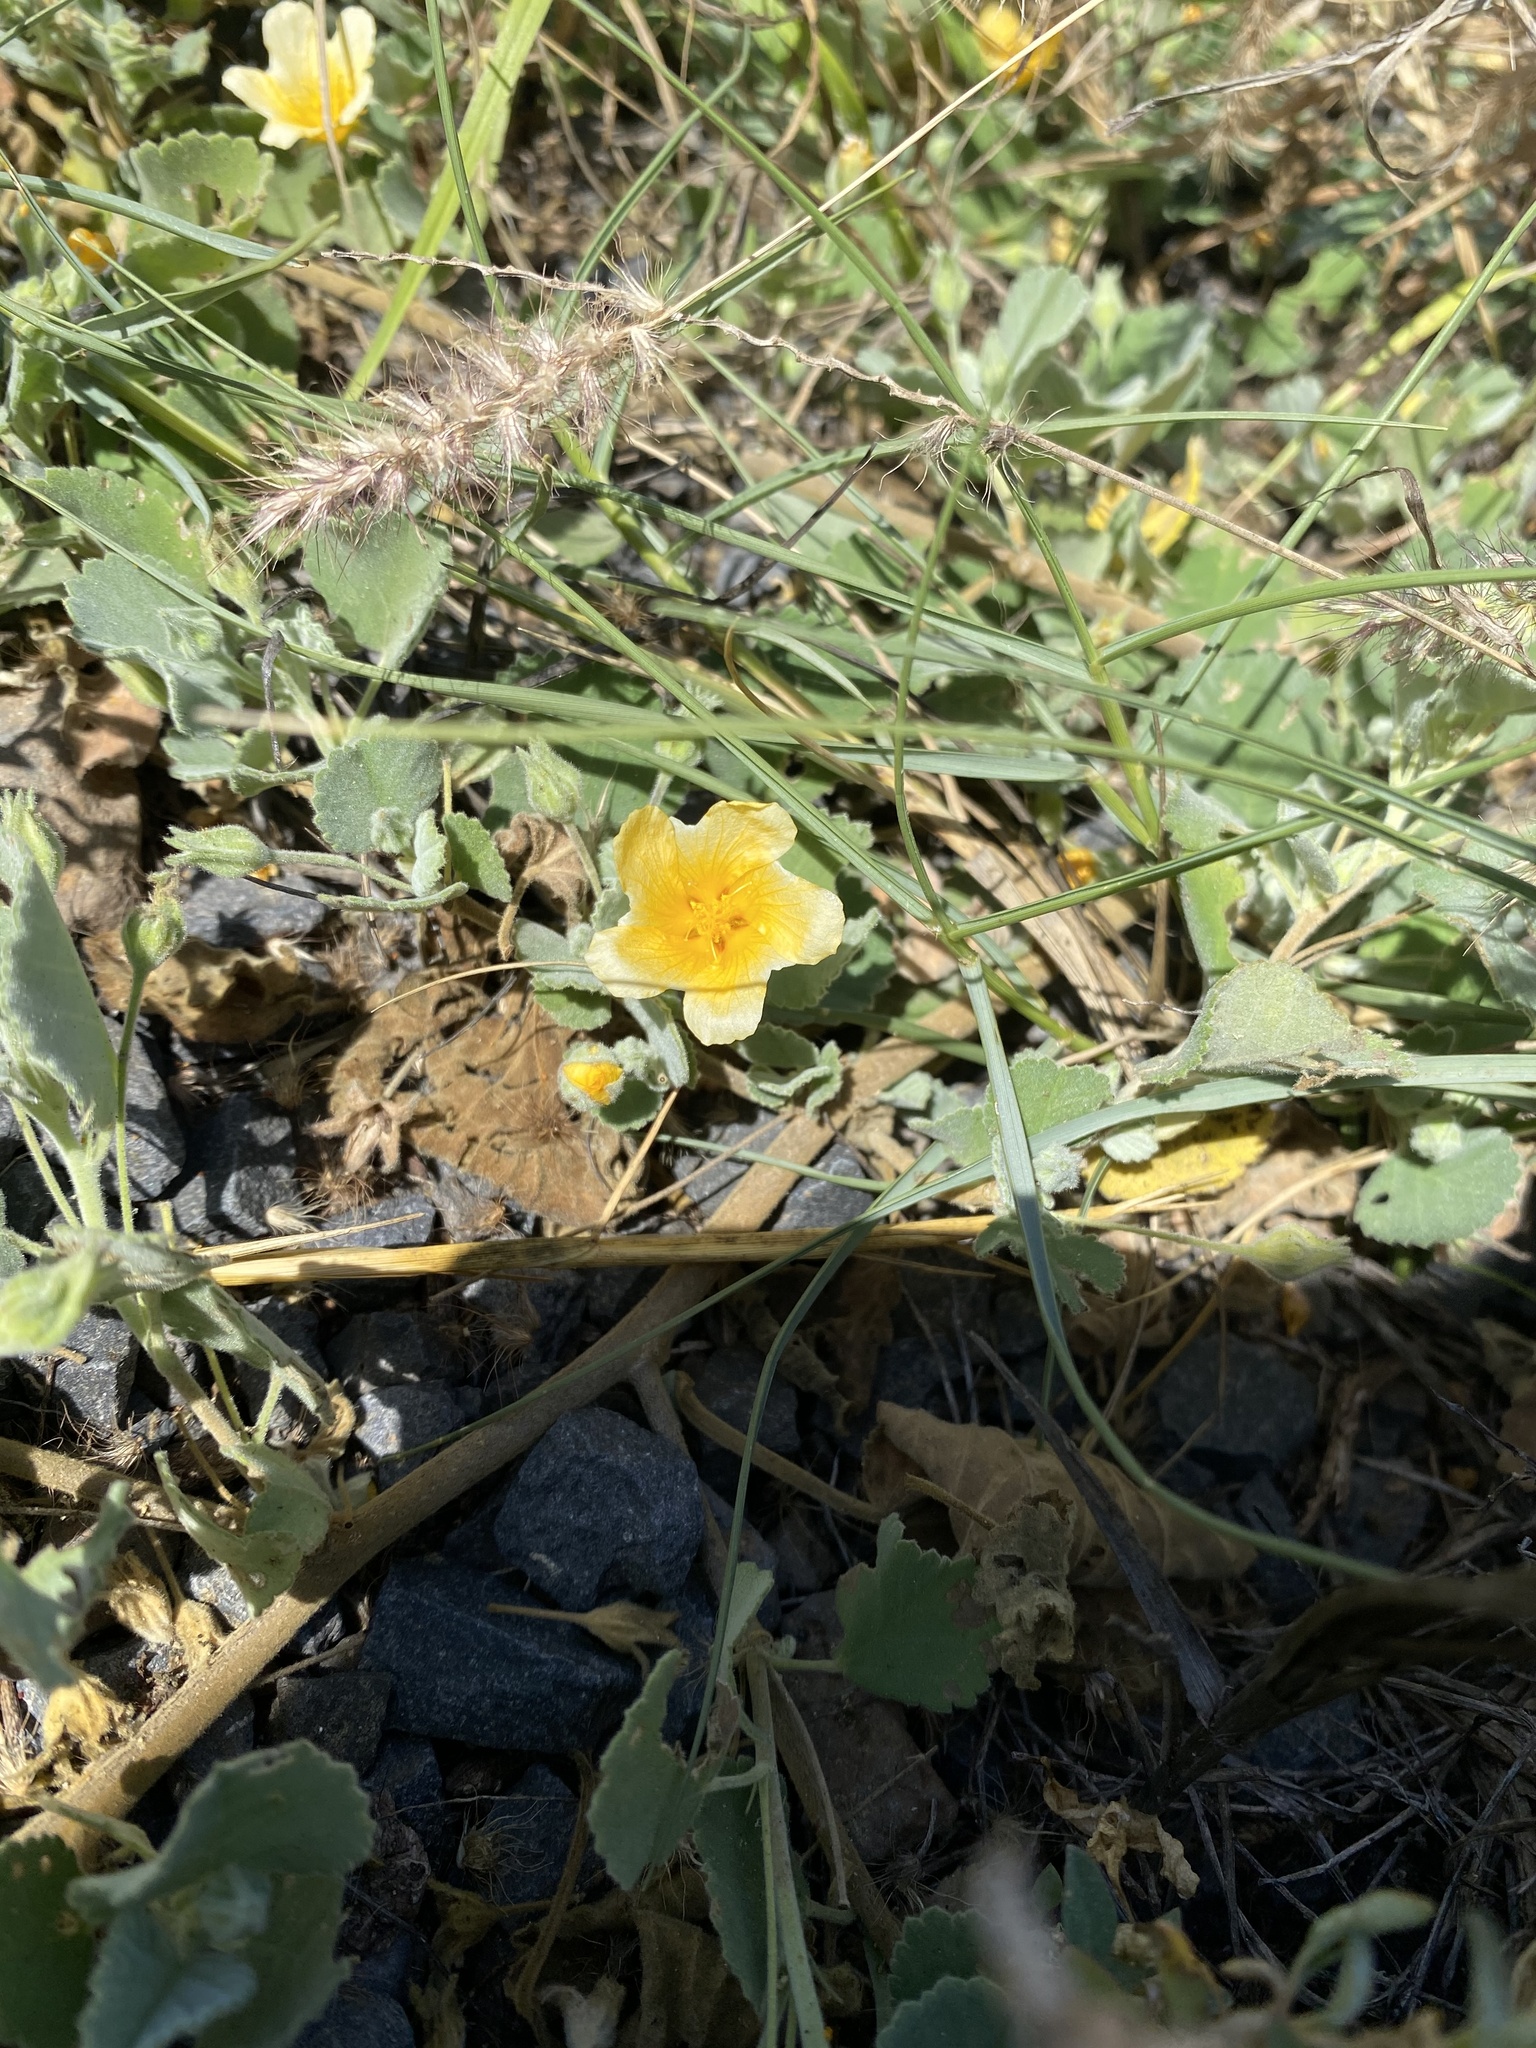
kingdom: Plantae
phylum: Tracheophyta
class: Magnoliopsida
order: Malvales
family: Malvaceae
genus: Sida
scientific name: Sida fallax
